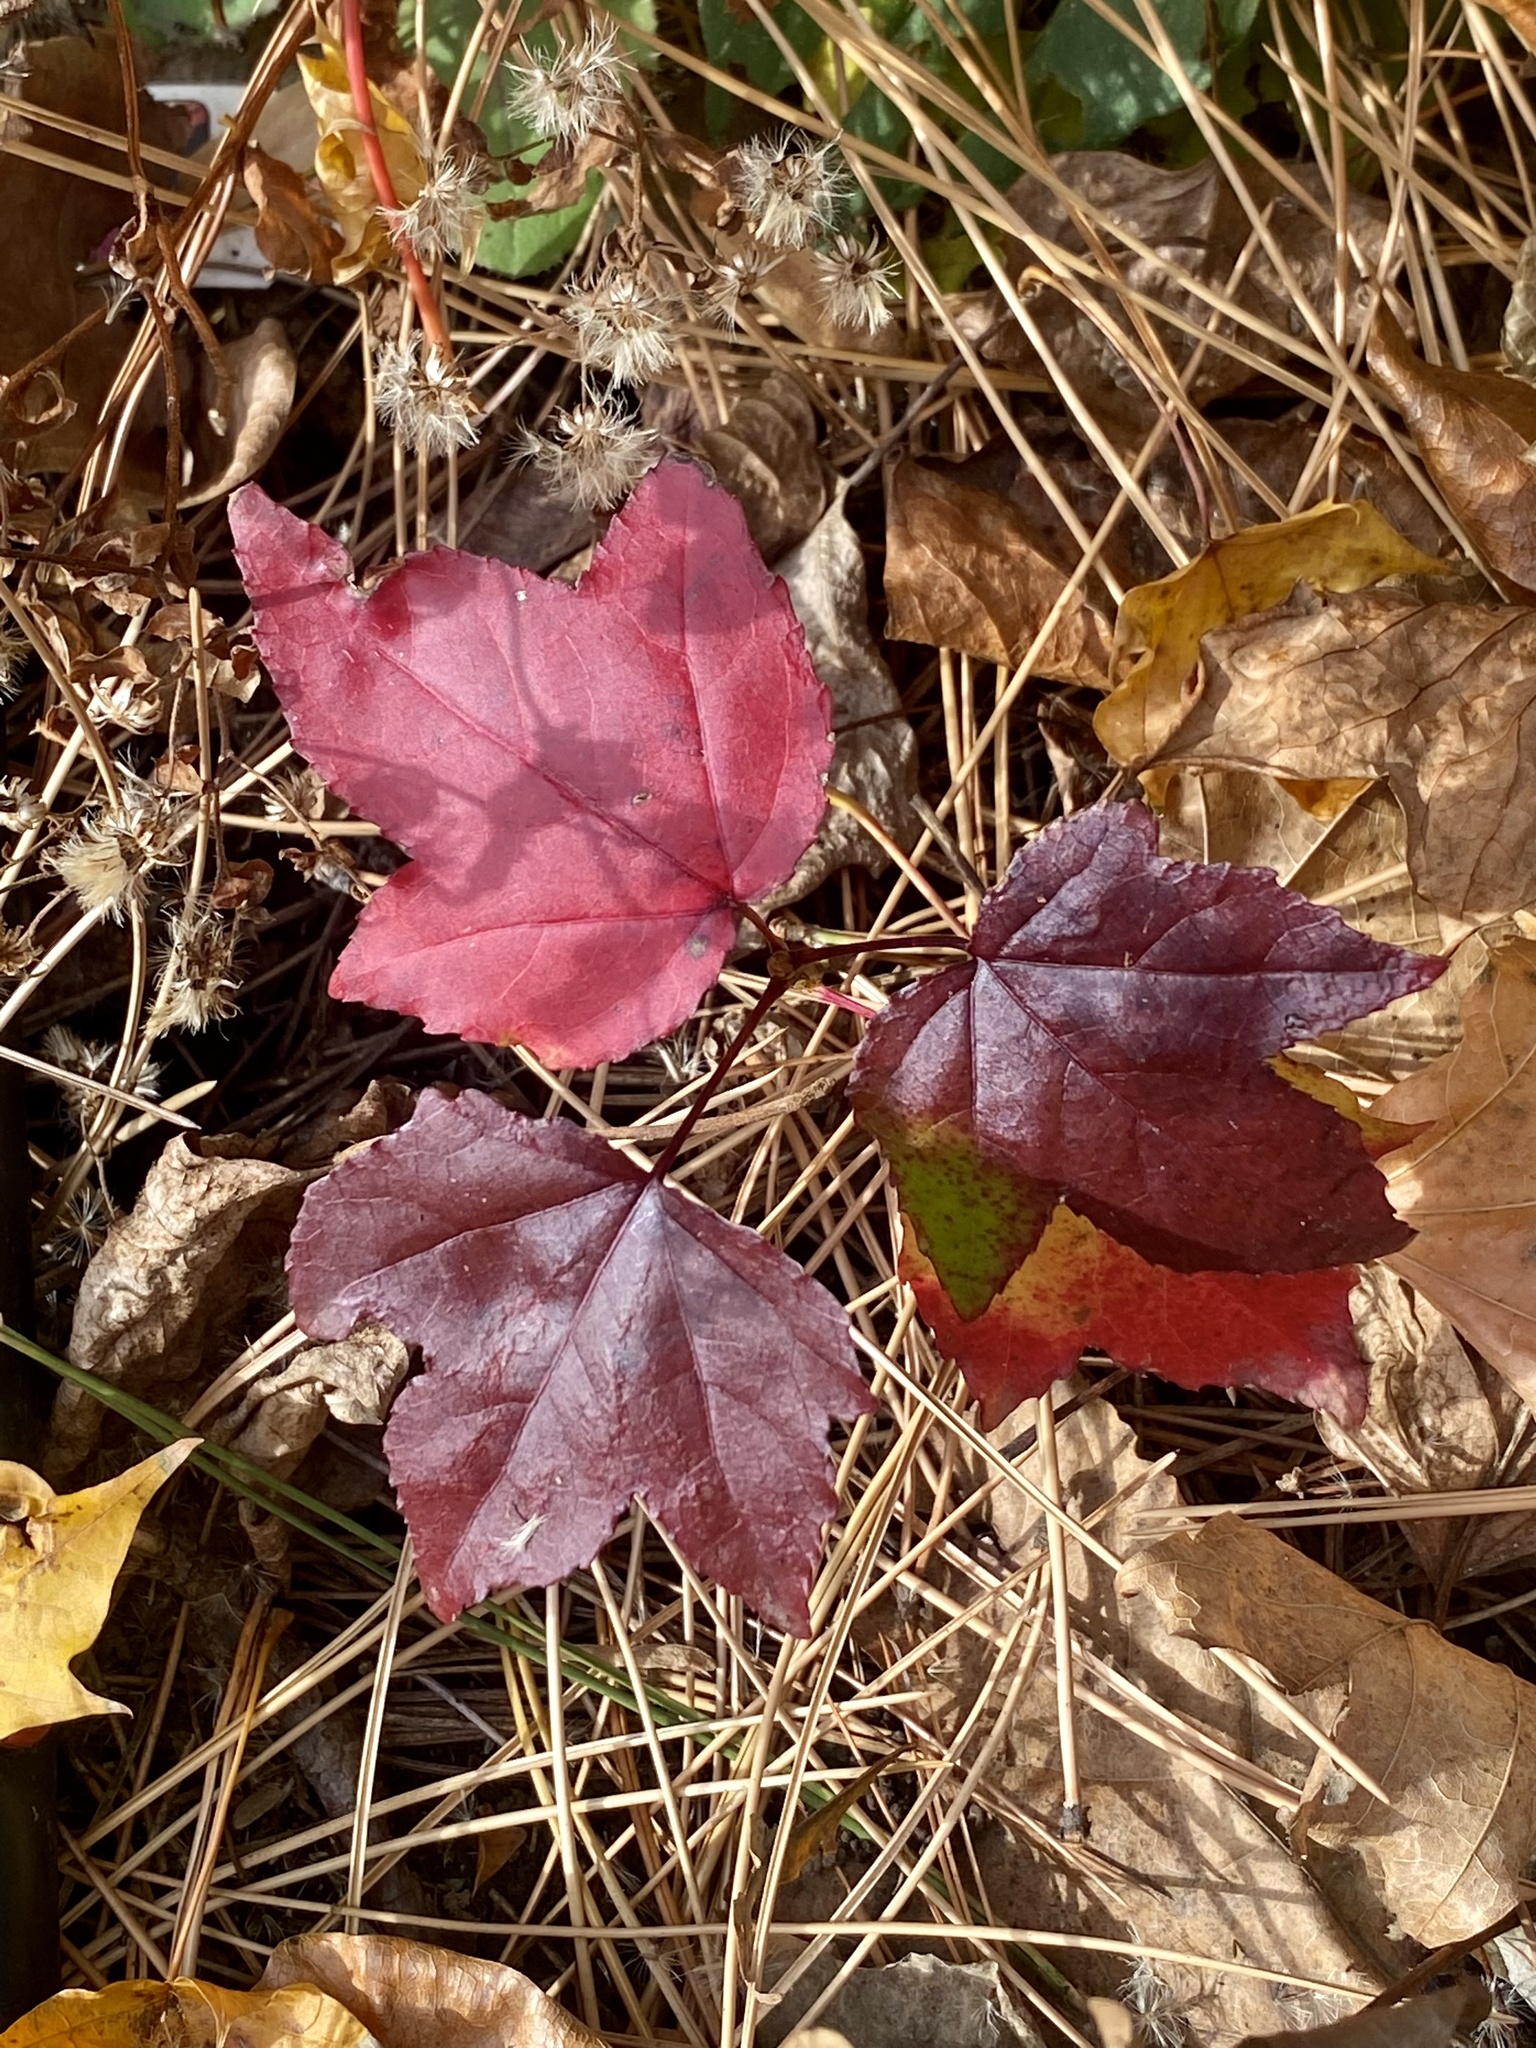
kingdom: Plantae
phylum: Tracheophyta
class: Magnoliopsida
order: Saxifragales
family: Altingiaceae
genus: Liquidambar
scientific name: Liquidambar styraciflua
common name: Sweet gum
